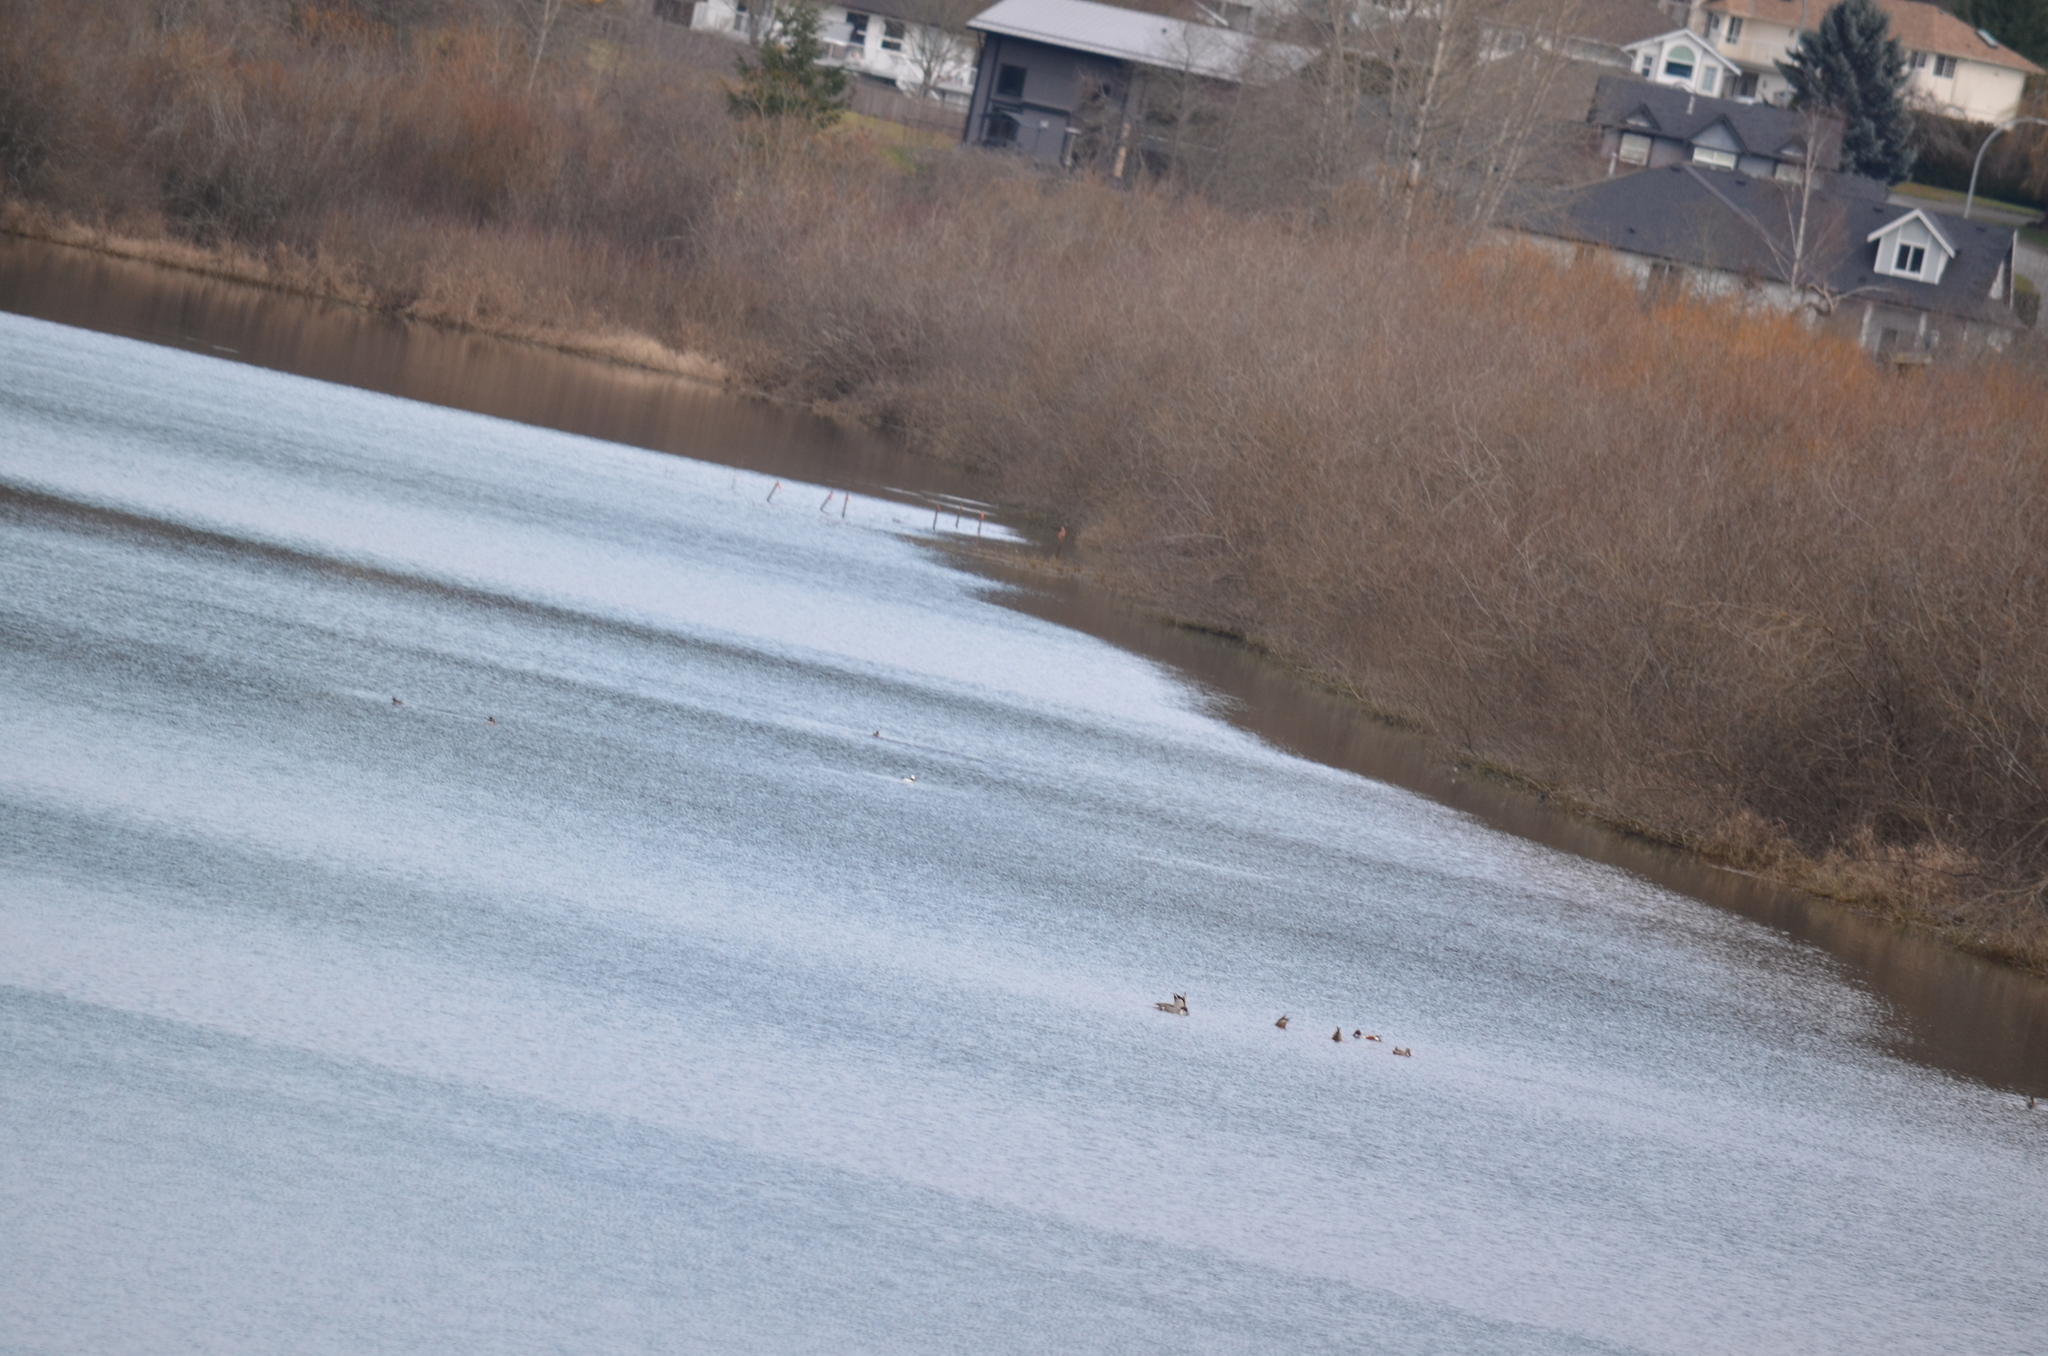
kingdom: Animalia
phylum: Chordata
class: Aves
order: Anseriformes
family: Anatidae
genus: Anas
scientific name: Anas acuta
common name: Northern pintail
